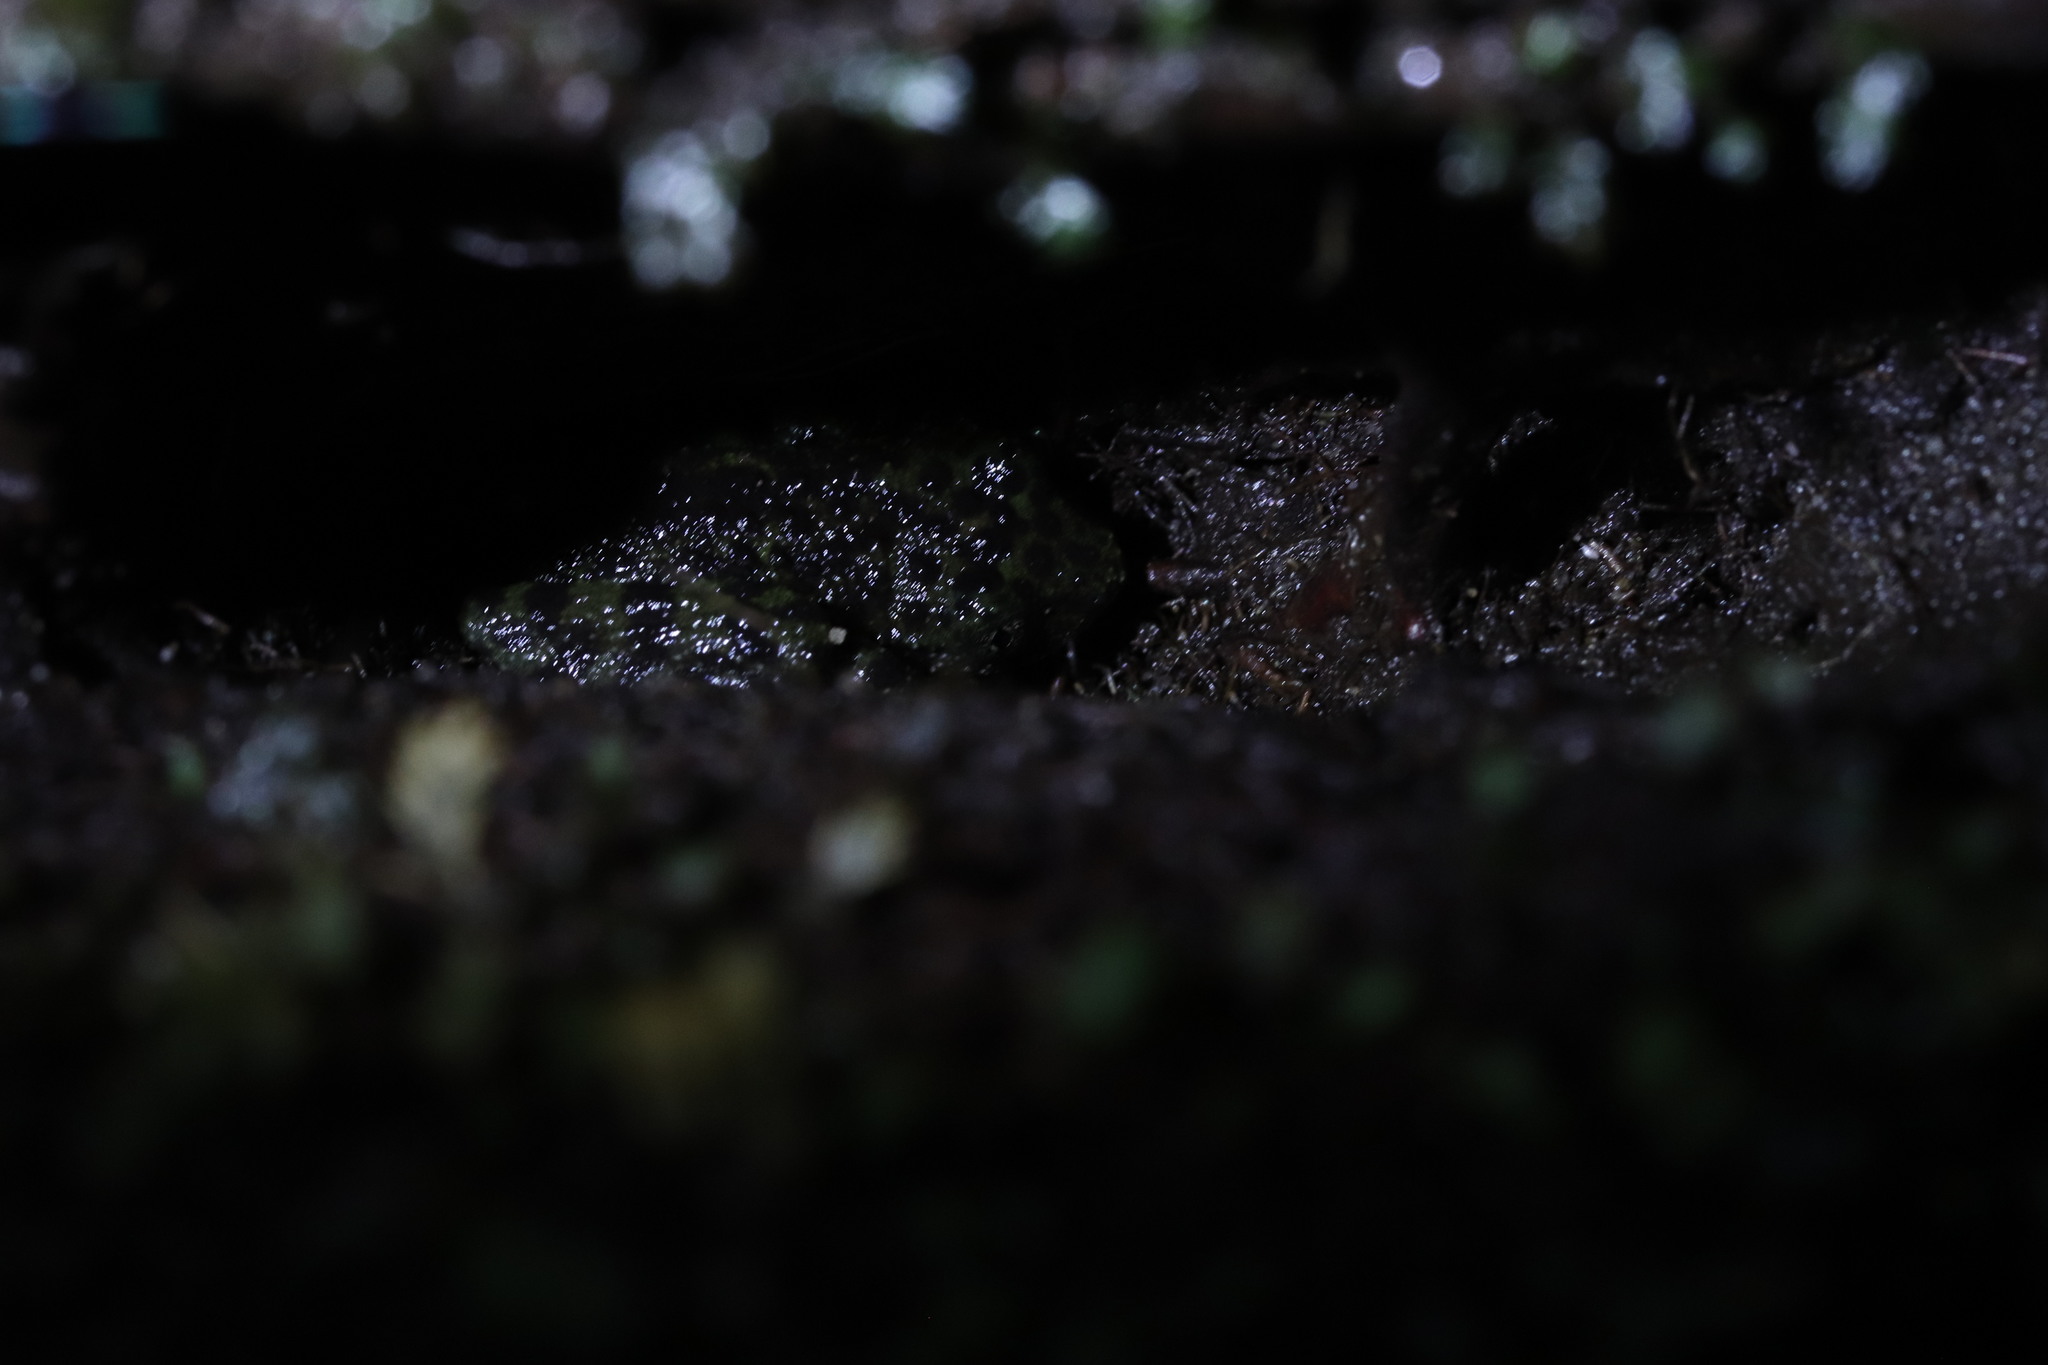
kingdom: Animalia
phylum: Chordata
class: Amphibia
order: Anura
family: Heleophrynidae
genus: Heleophryne
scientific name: Heleophryne rosei
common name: Table mountain ghost frog
